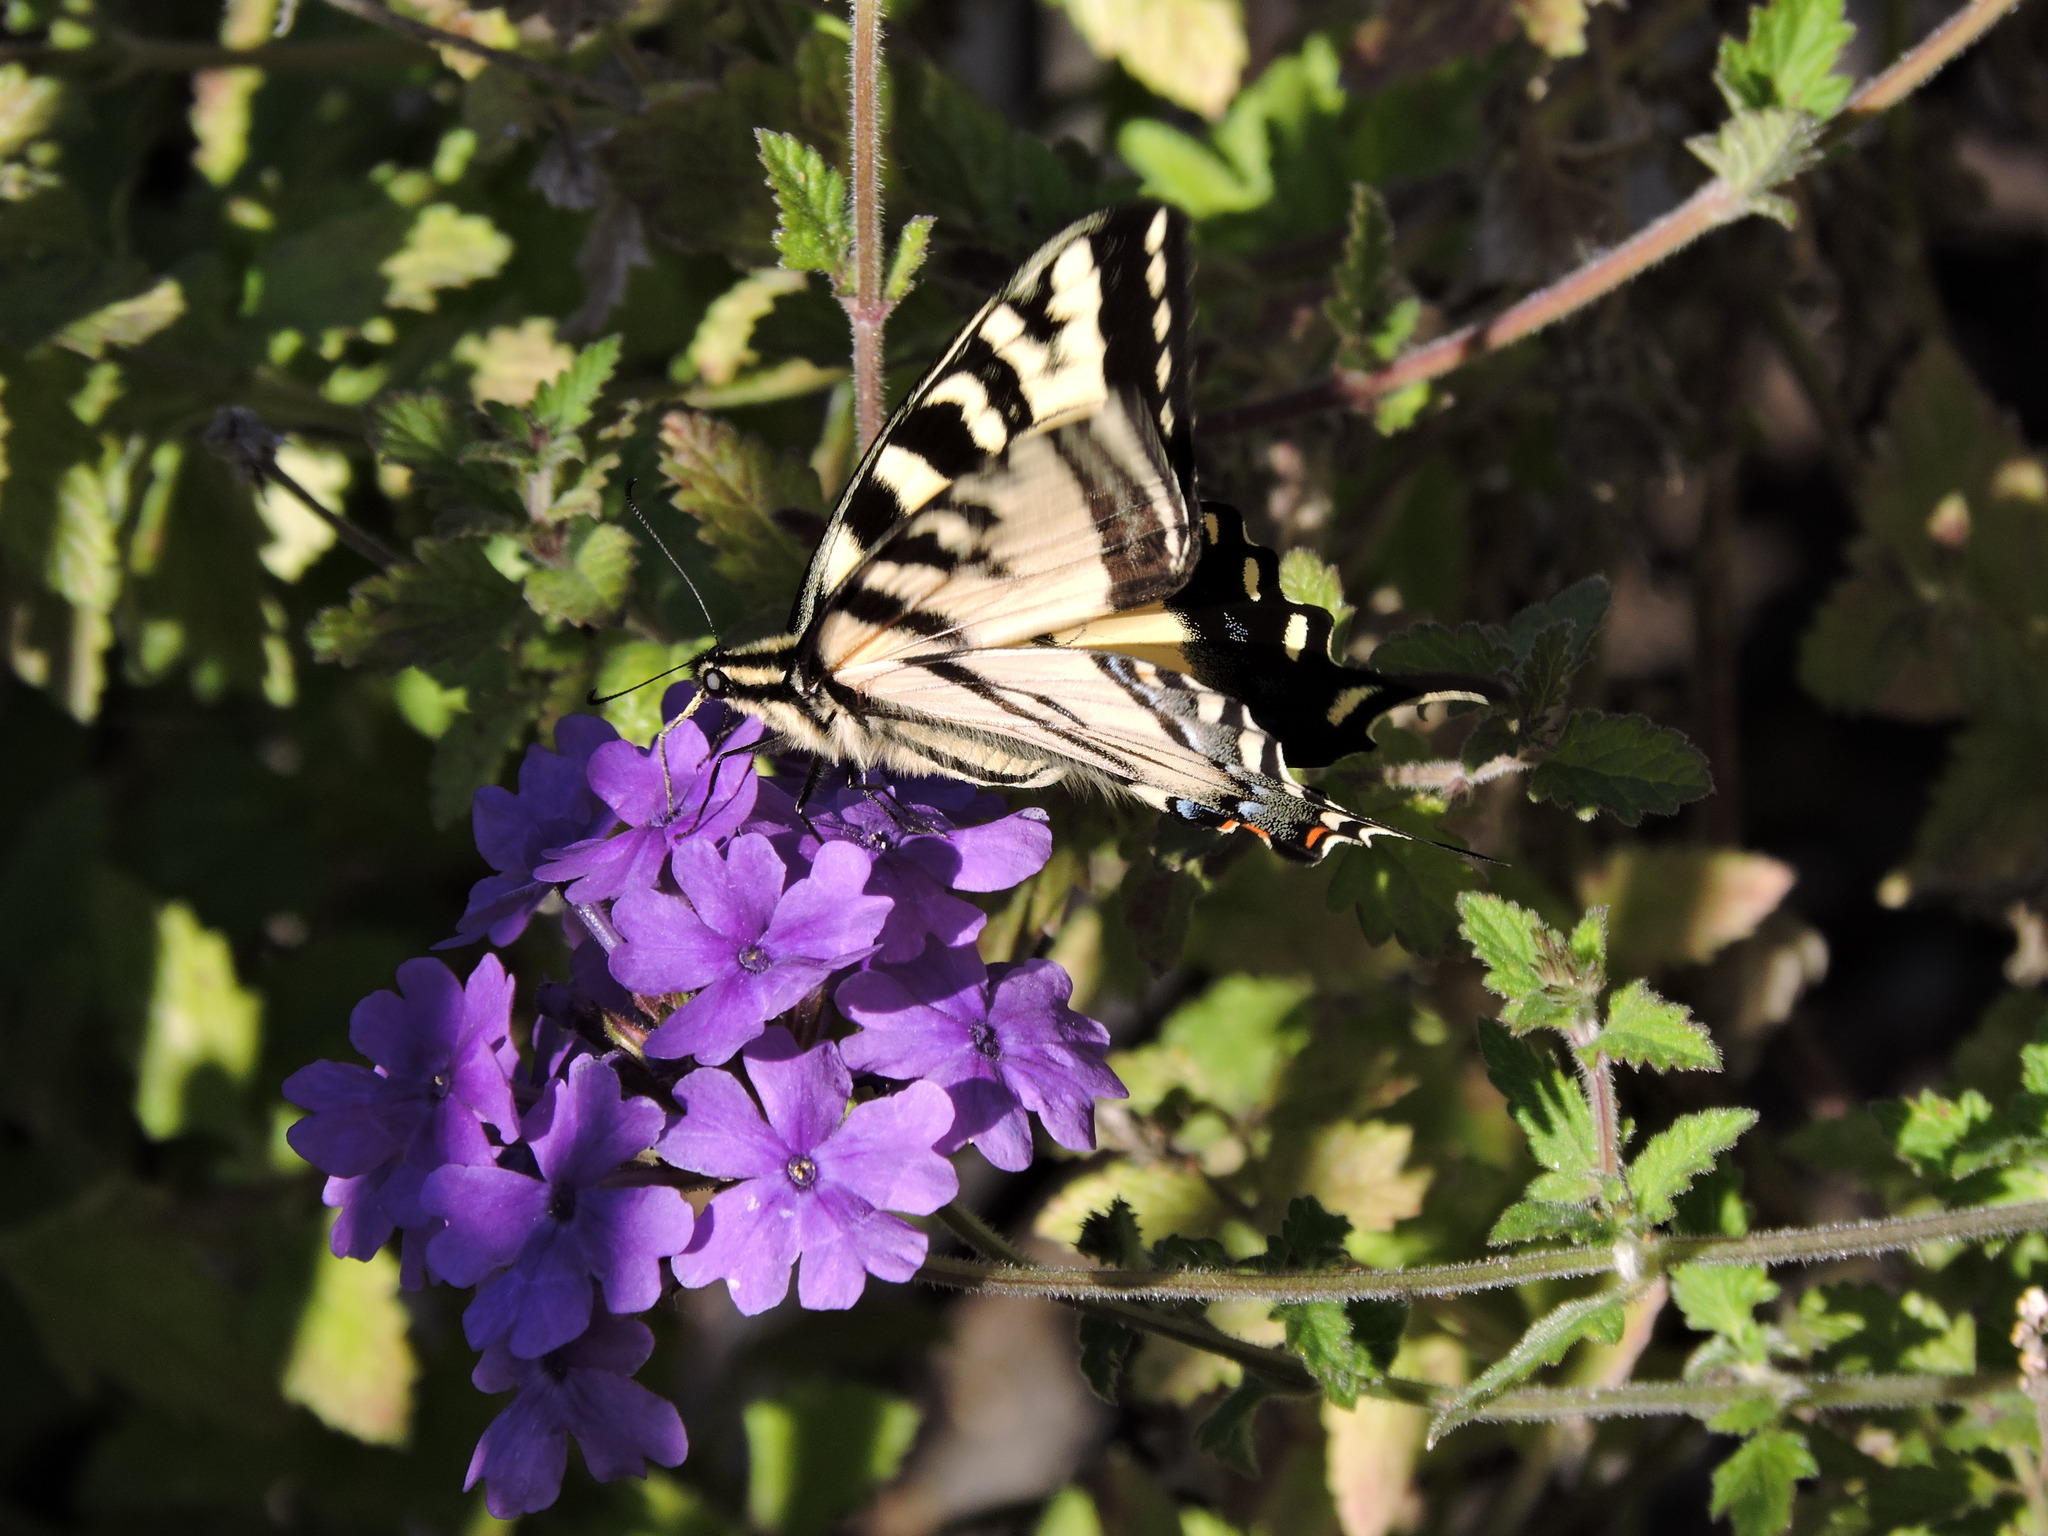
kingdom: Animalia
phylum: Arthropoda
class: Insecta
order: Lepidoptera
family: Papilionidae
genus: Papilio
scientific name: Papilio rutulus
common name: Western tiger swallowtail
